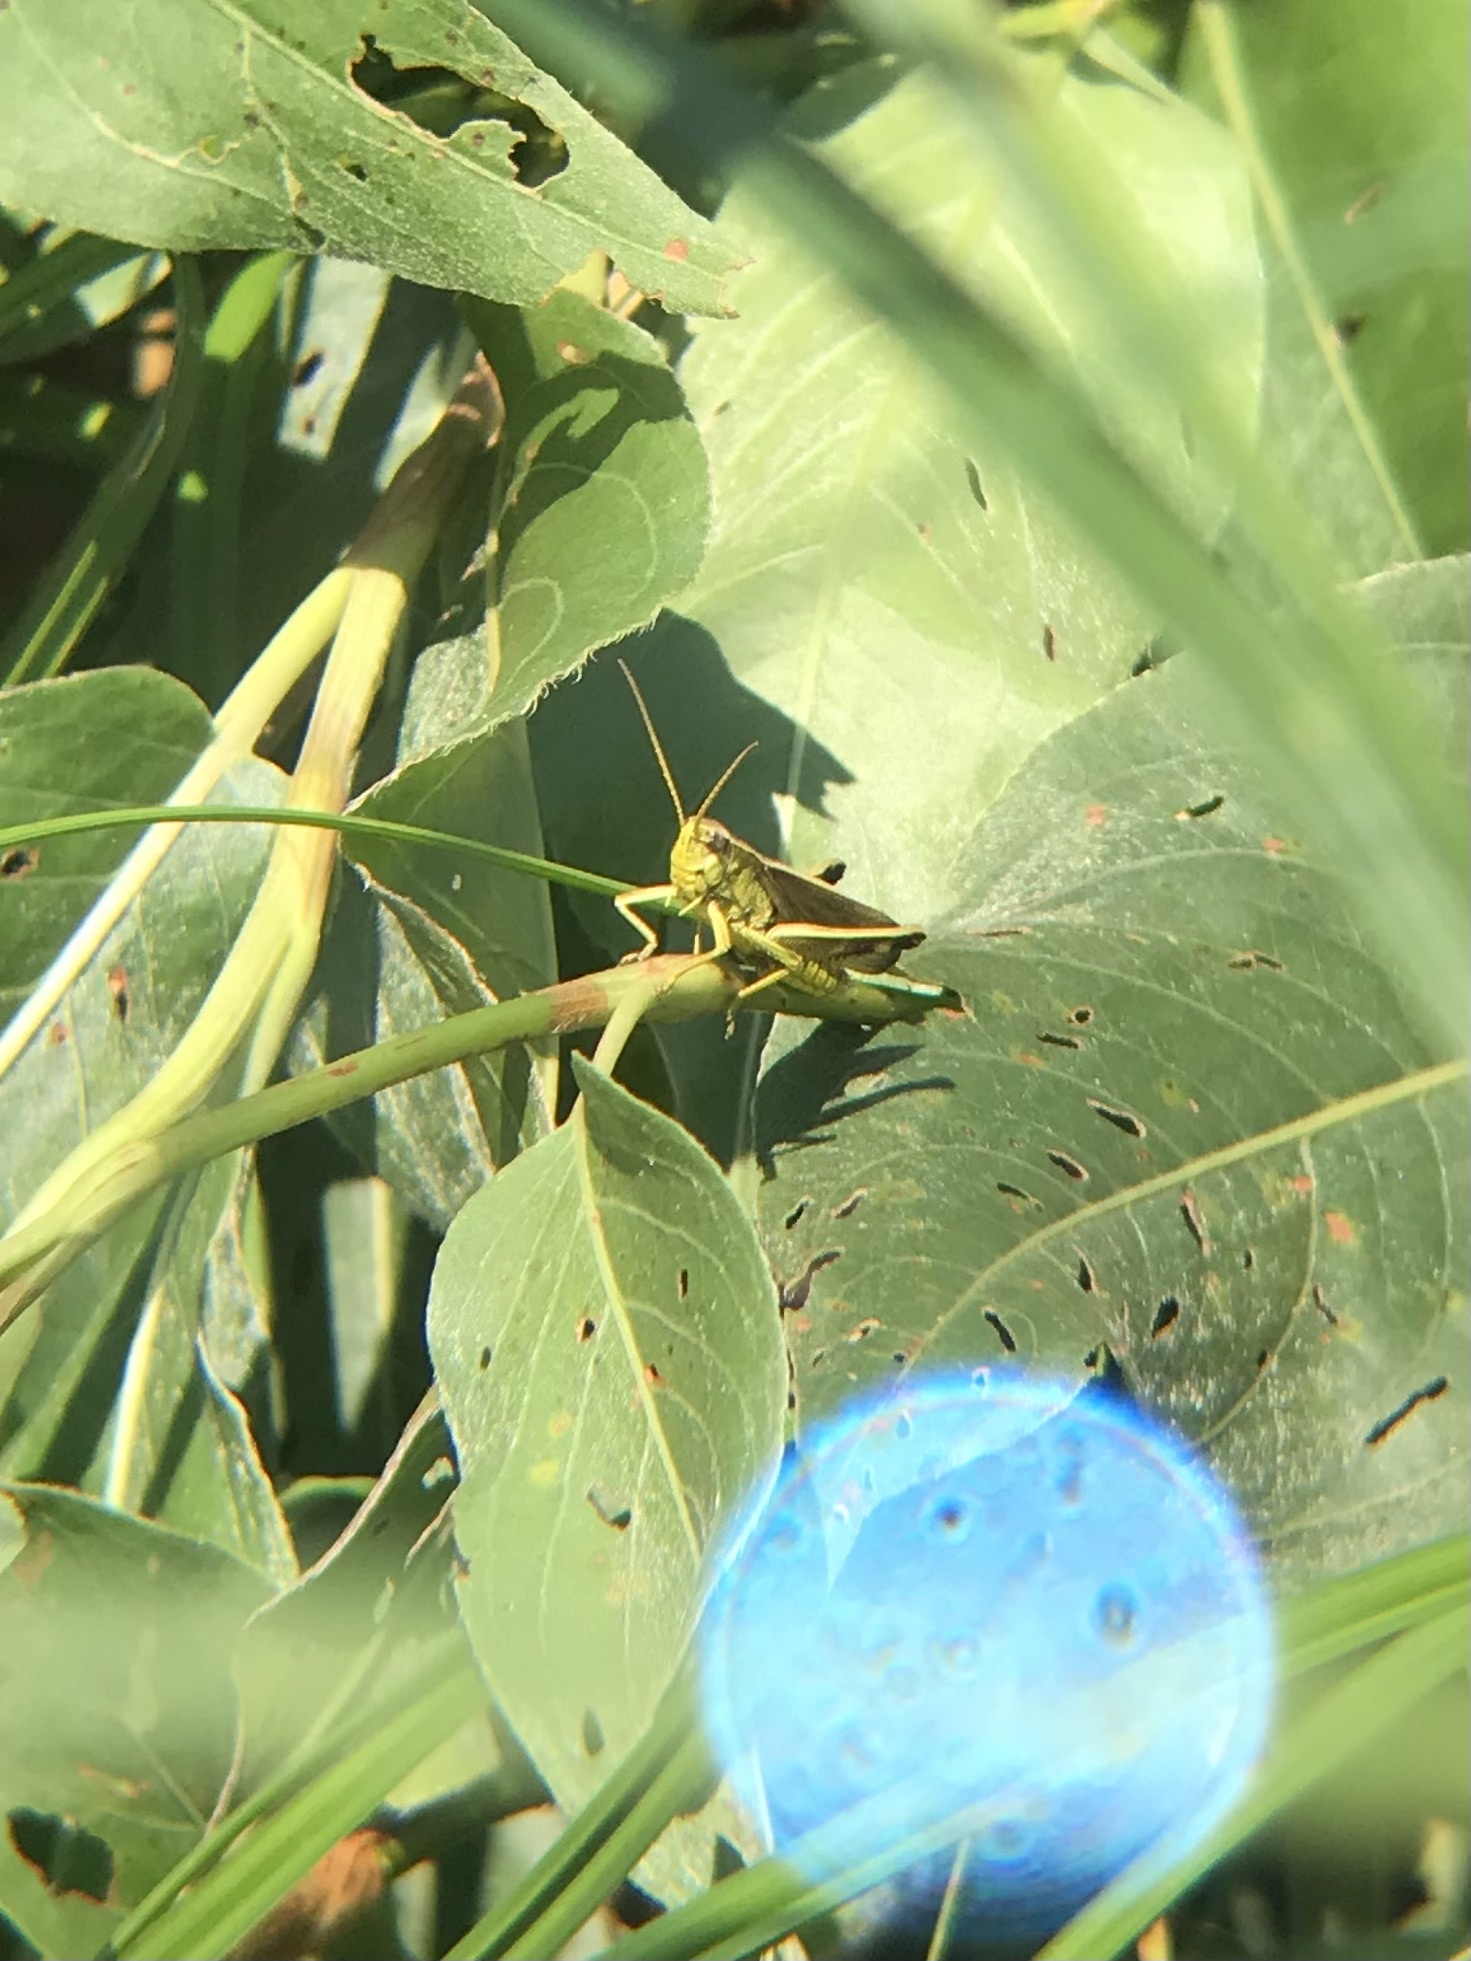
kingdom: Animalia
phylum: Arthropoda
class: Insecta
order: Orthoptera
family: Acrididae
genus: Stethophyma
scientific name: Stethophyma gracile
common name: Graceful sedge grasshopper
